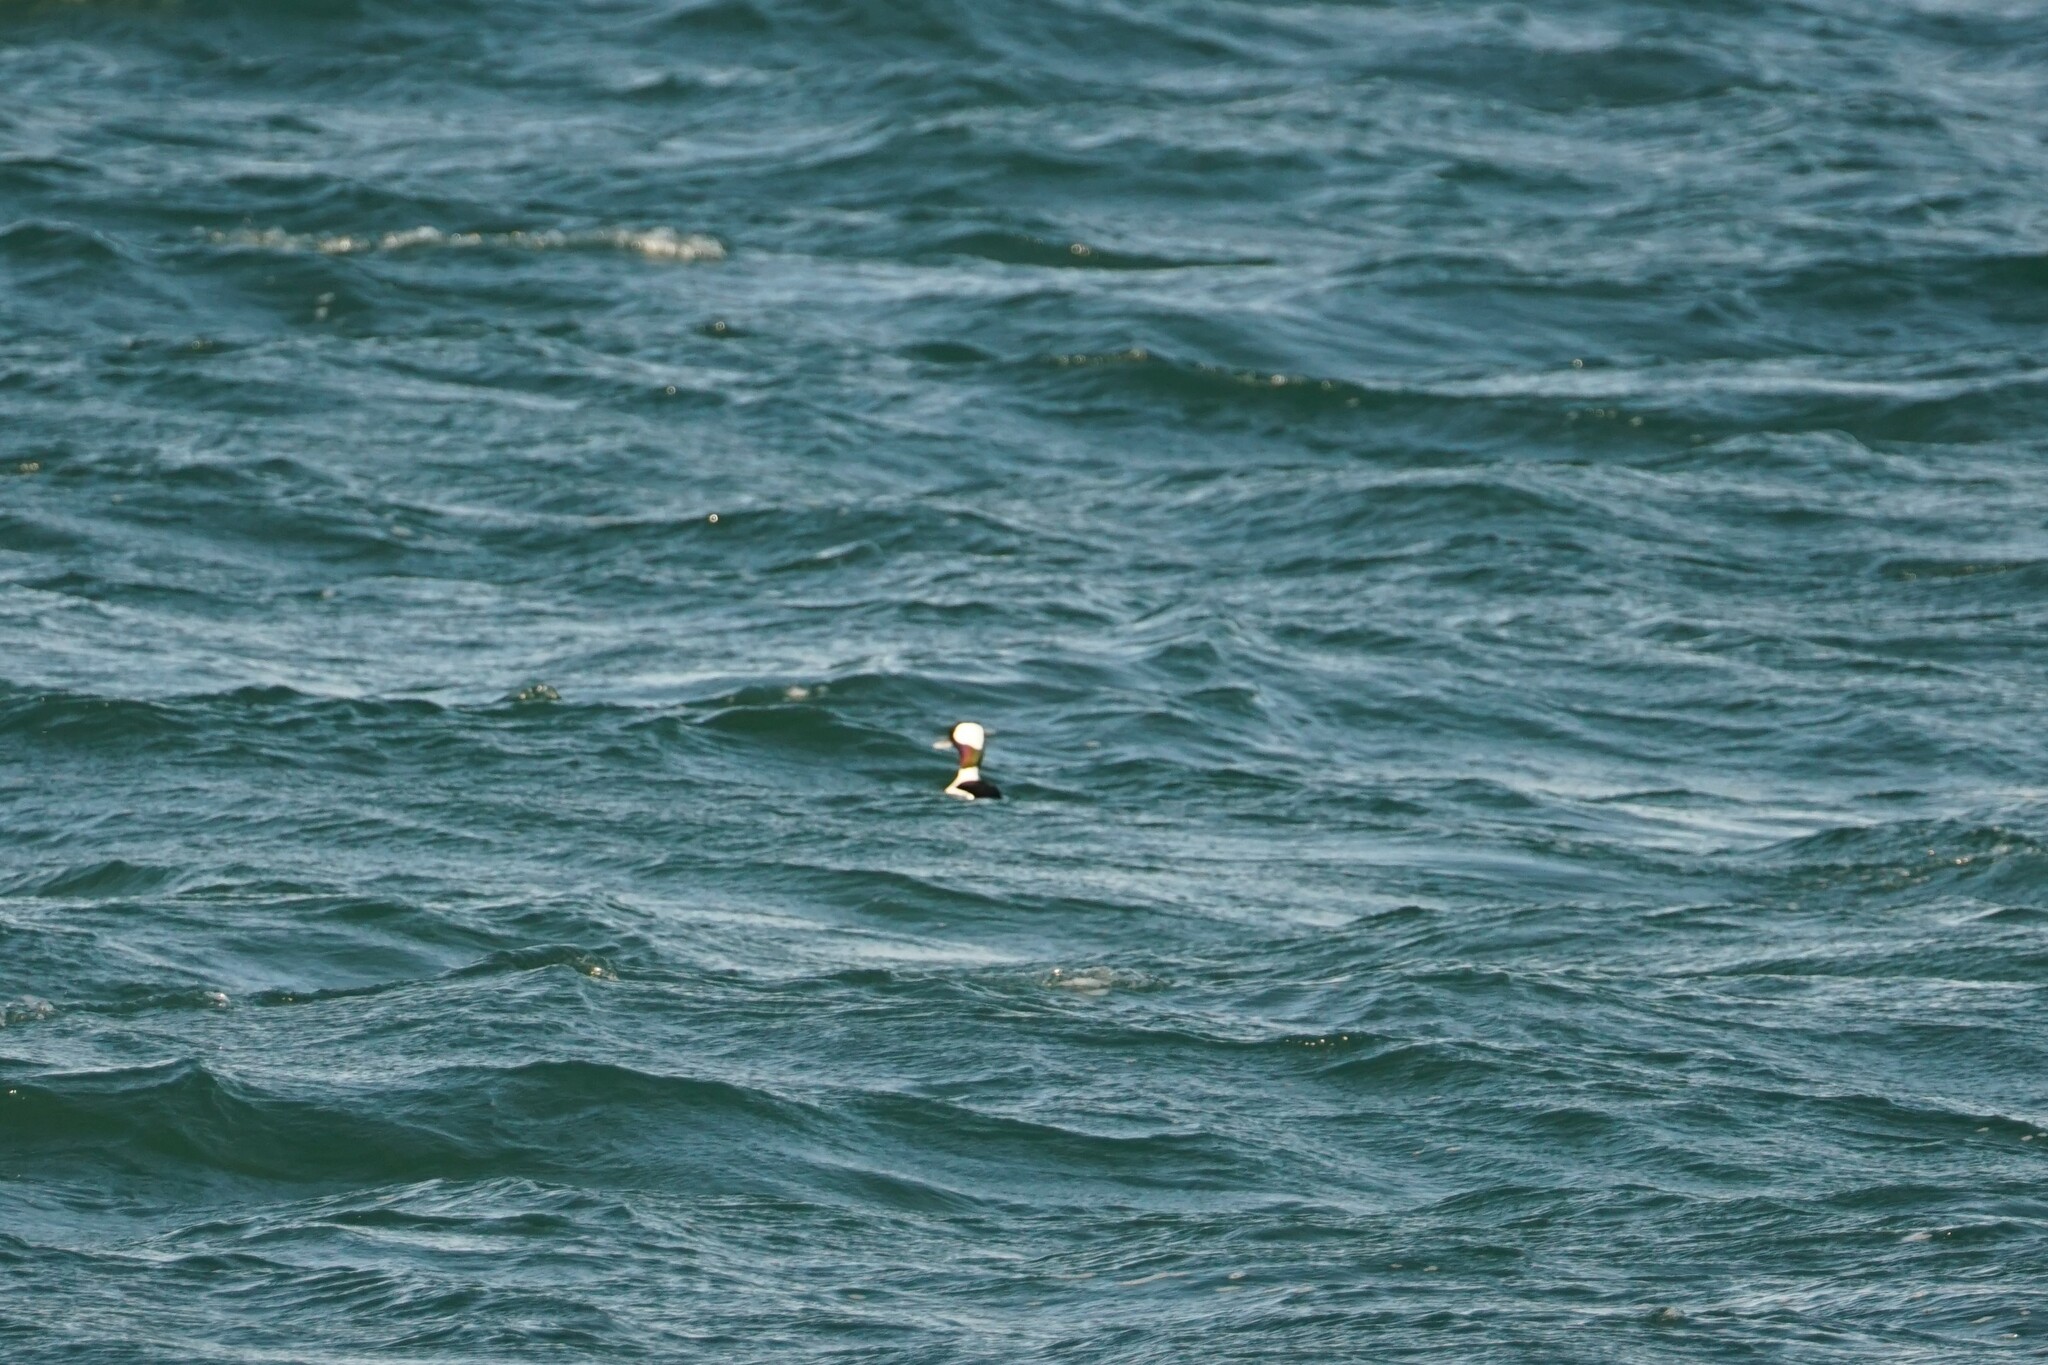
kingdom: Animalia
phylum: Chordata
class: Aves
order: Anseriformes
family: Anatidae
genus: Bucephala
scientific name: Bucephala albeola
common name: Bufflehead
